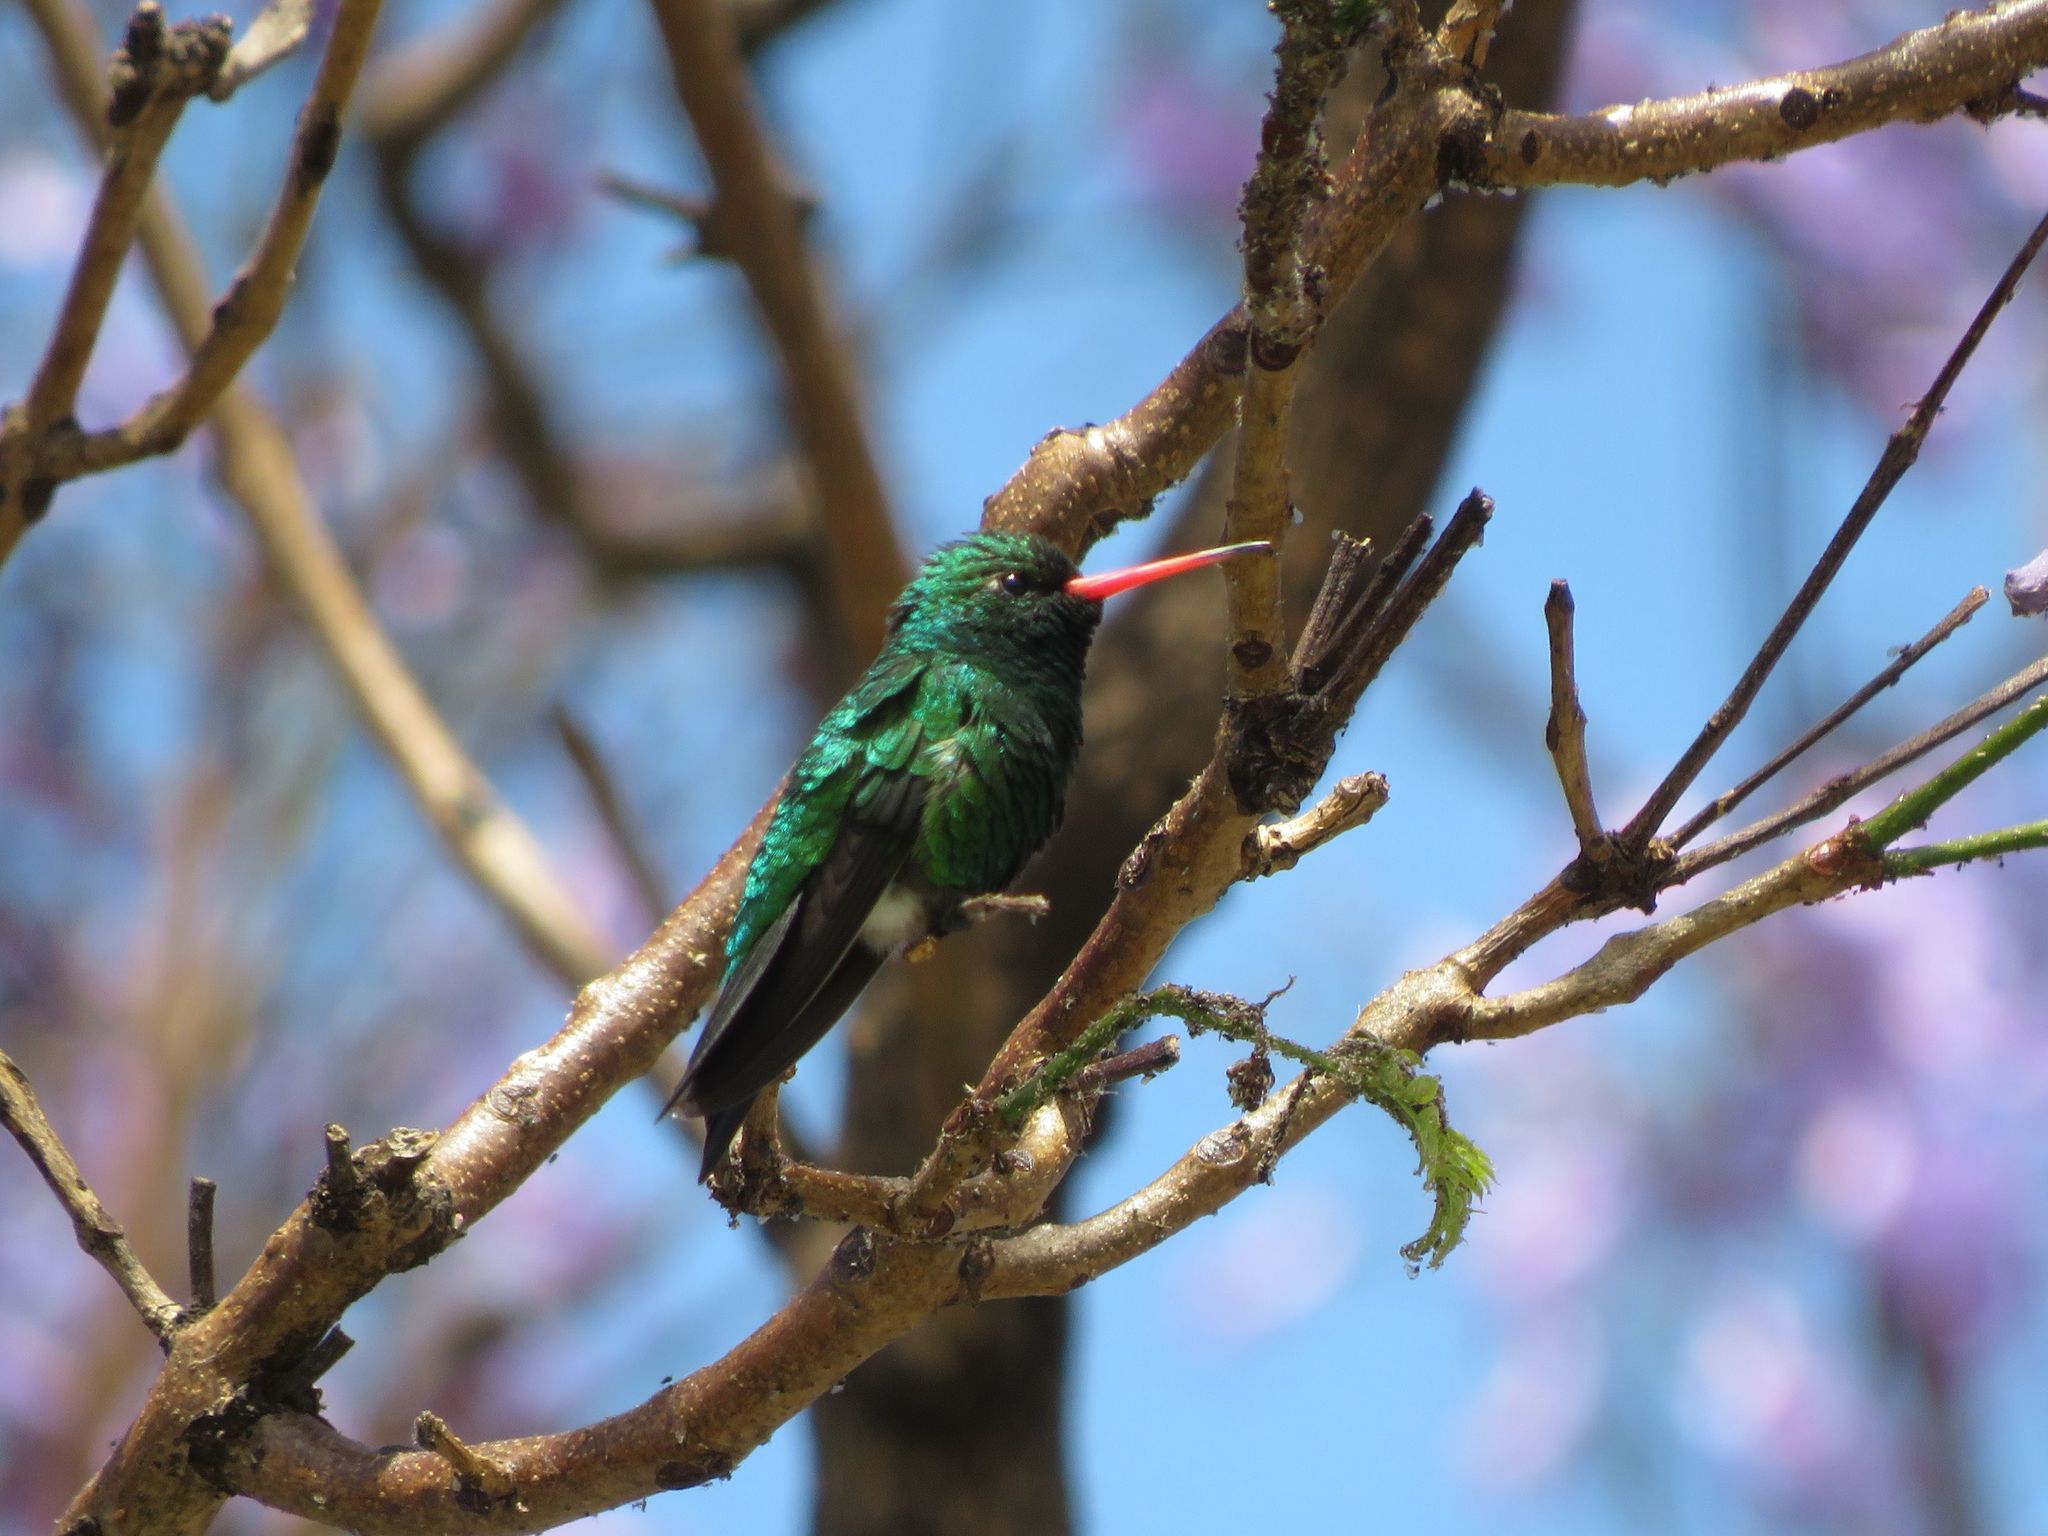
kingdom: Animalia
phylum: Chordata
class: Aves
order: Apodiformes
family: Trochilidae
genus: Chlorostilbon
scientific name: Chlorostilbon lucidus
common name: Glittering-bellied emerald
